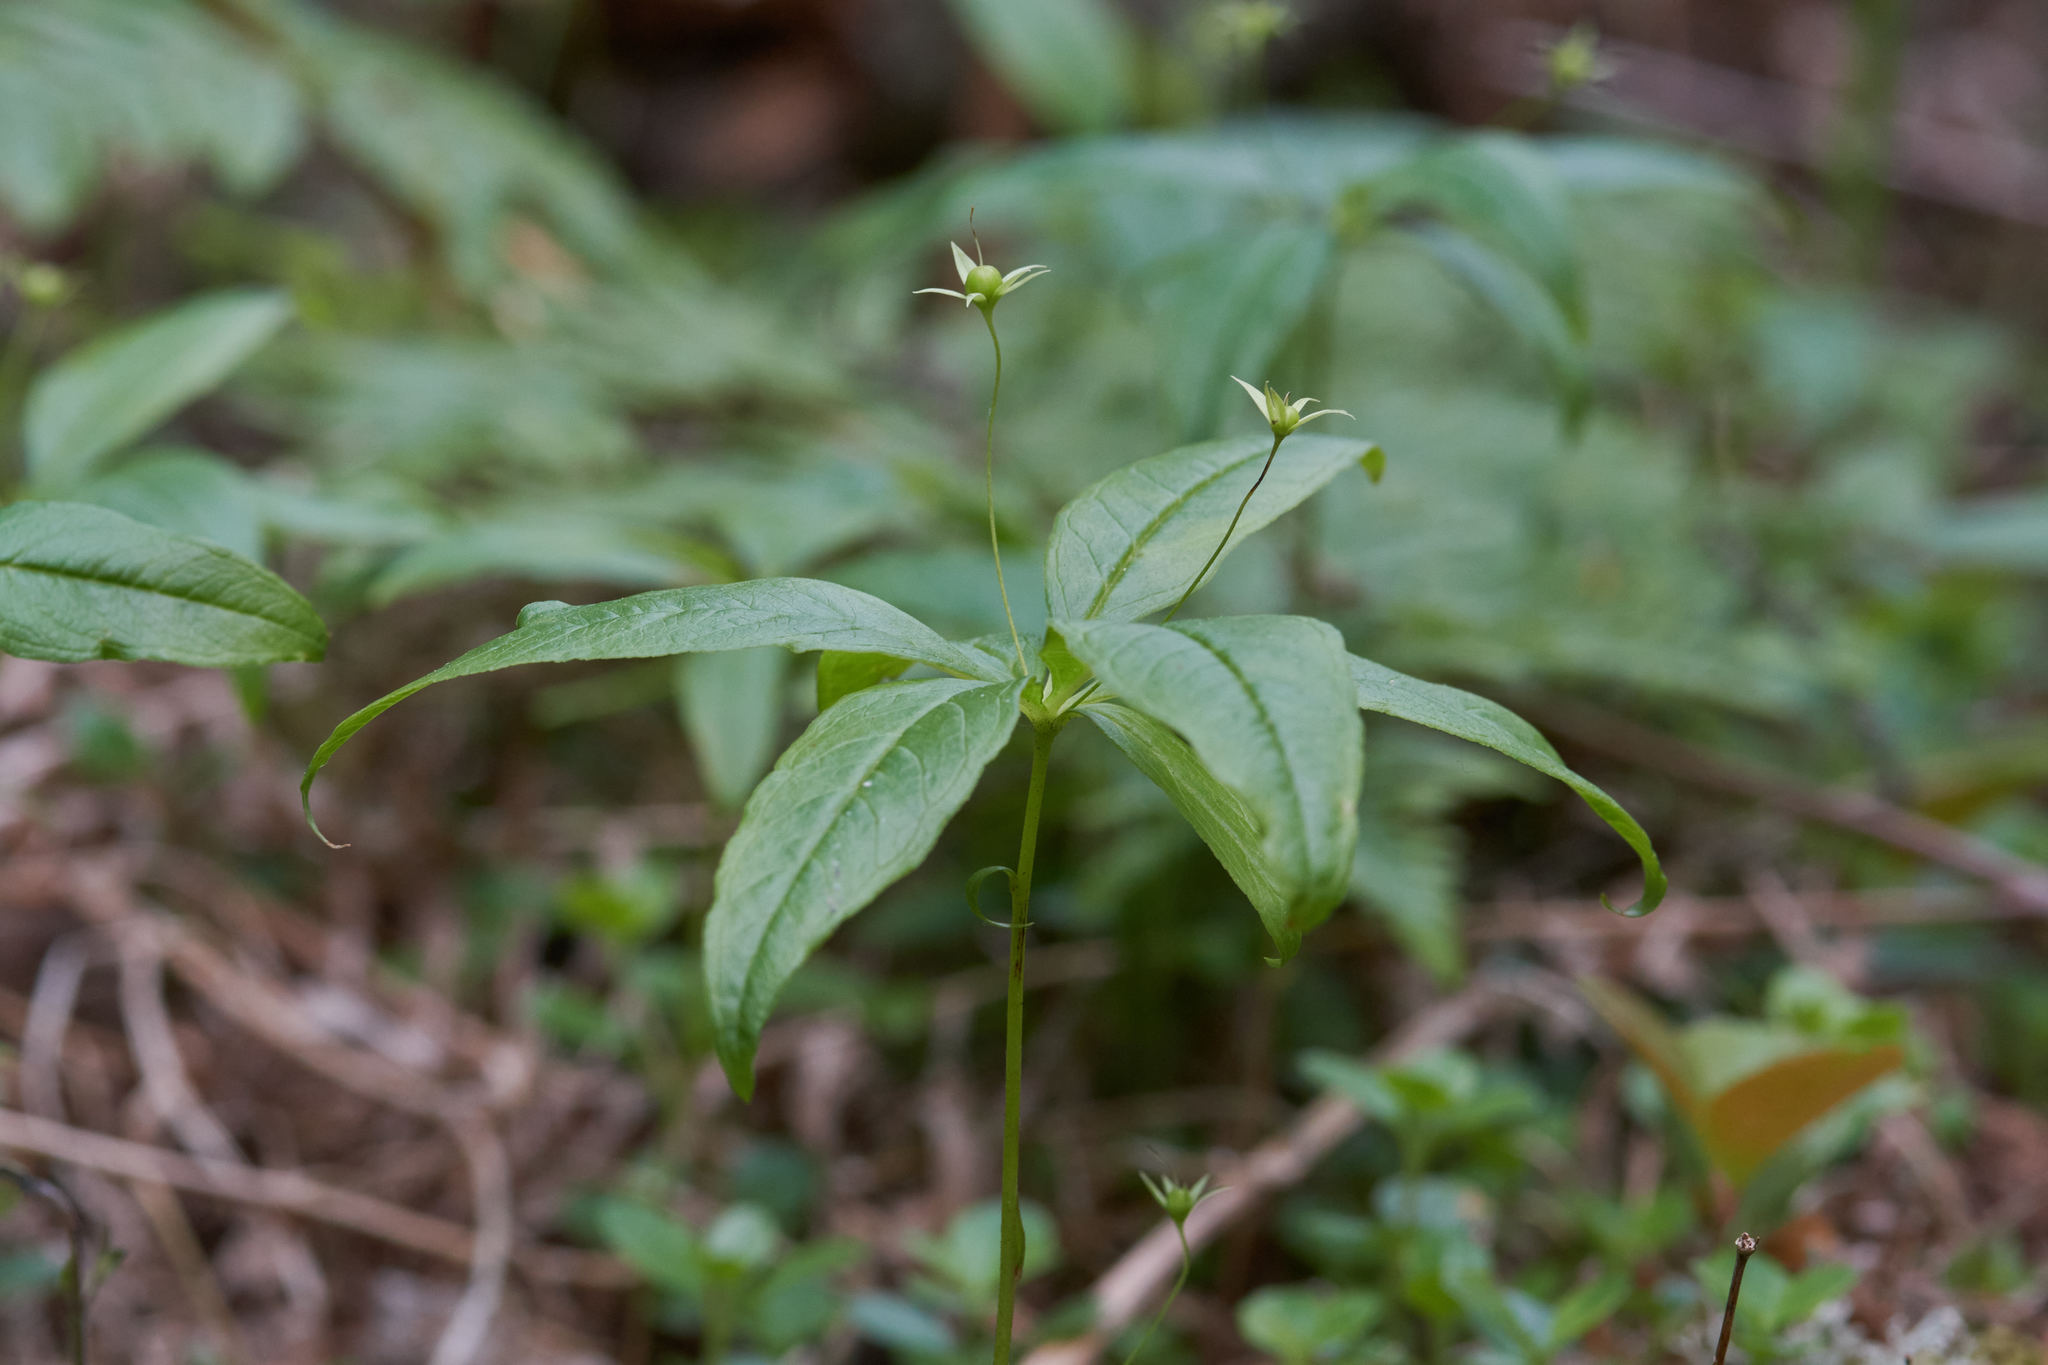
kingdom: Plantae
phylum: Tracheophyta
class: Magnoliopsida
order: Ericales
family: Primulaceae
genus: Lysimachia
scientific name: Lysimachia borealis
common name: American starflower
